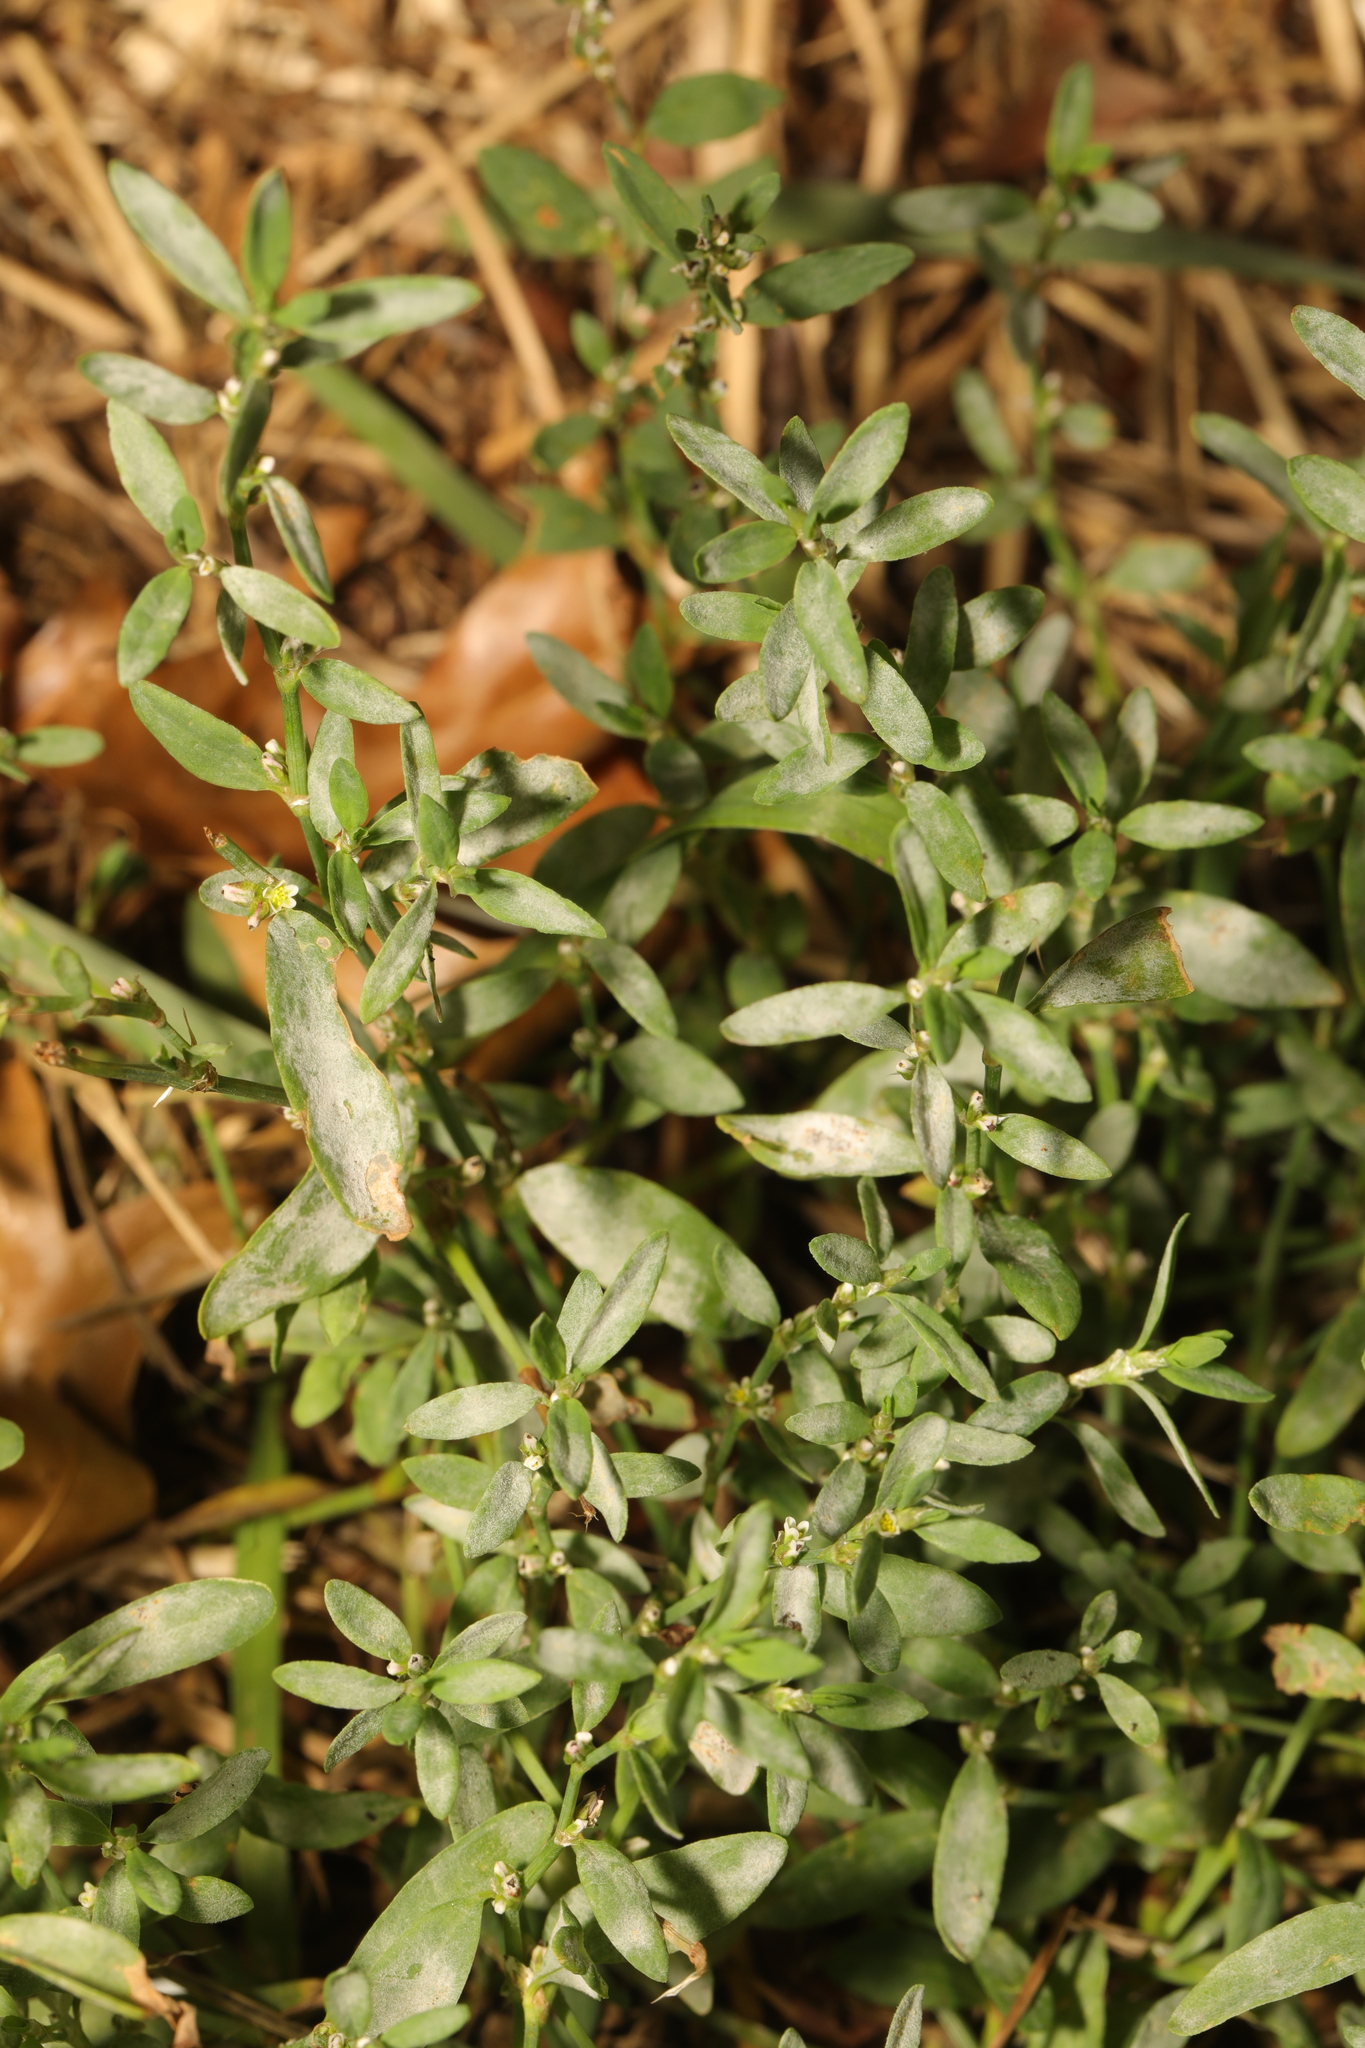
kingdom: Plantae
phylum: Tracheophyta
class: Magnoliopsida
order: Caryophyllales
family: Polygonaceae
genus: Polygonum
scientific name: Polygonum aviculare
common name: Prostrate knotweed
